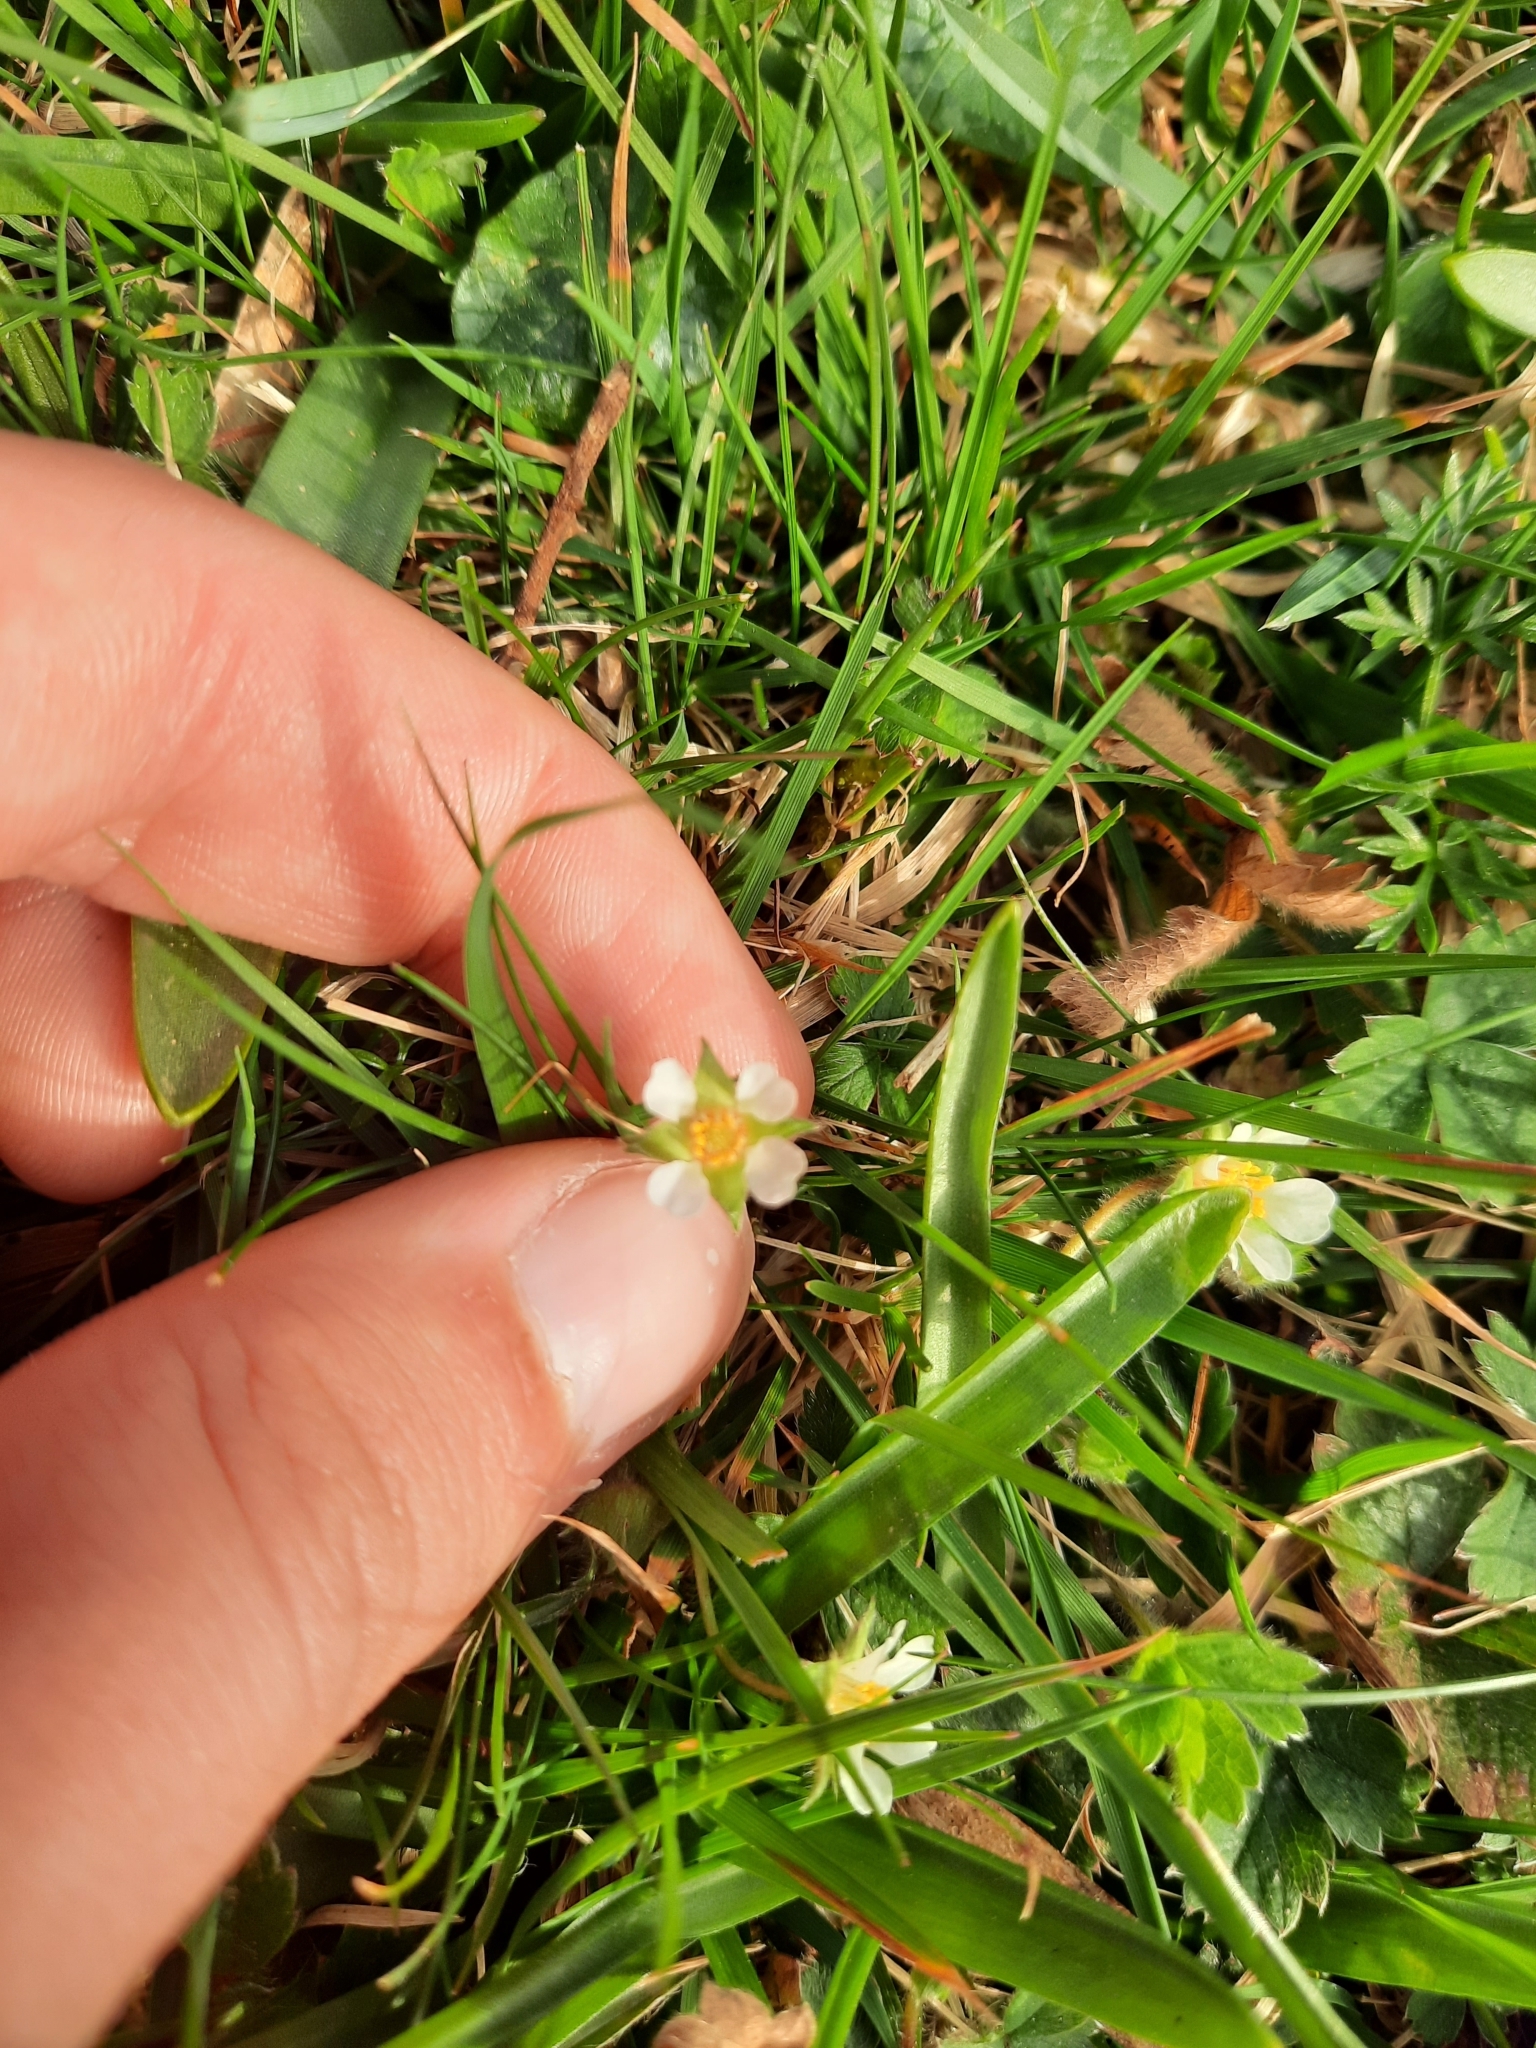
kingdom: Plantae
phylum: Tracheophyta
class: Magnoliopsida
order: Rosales
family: Rosaceae
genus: Potentilla
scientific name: Potentilla sterilis
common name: Barren strawberry
